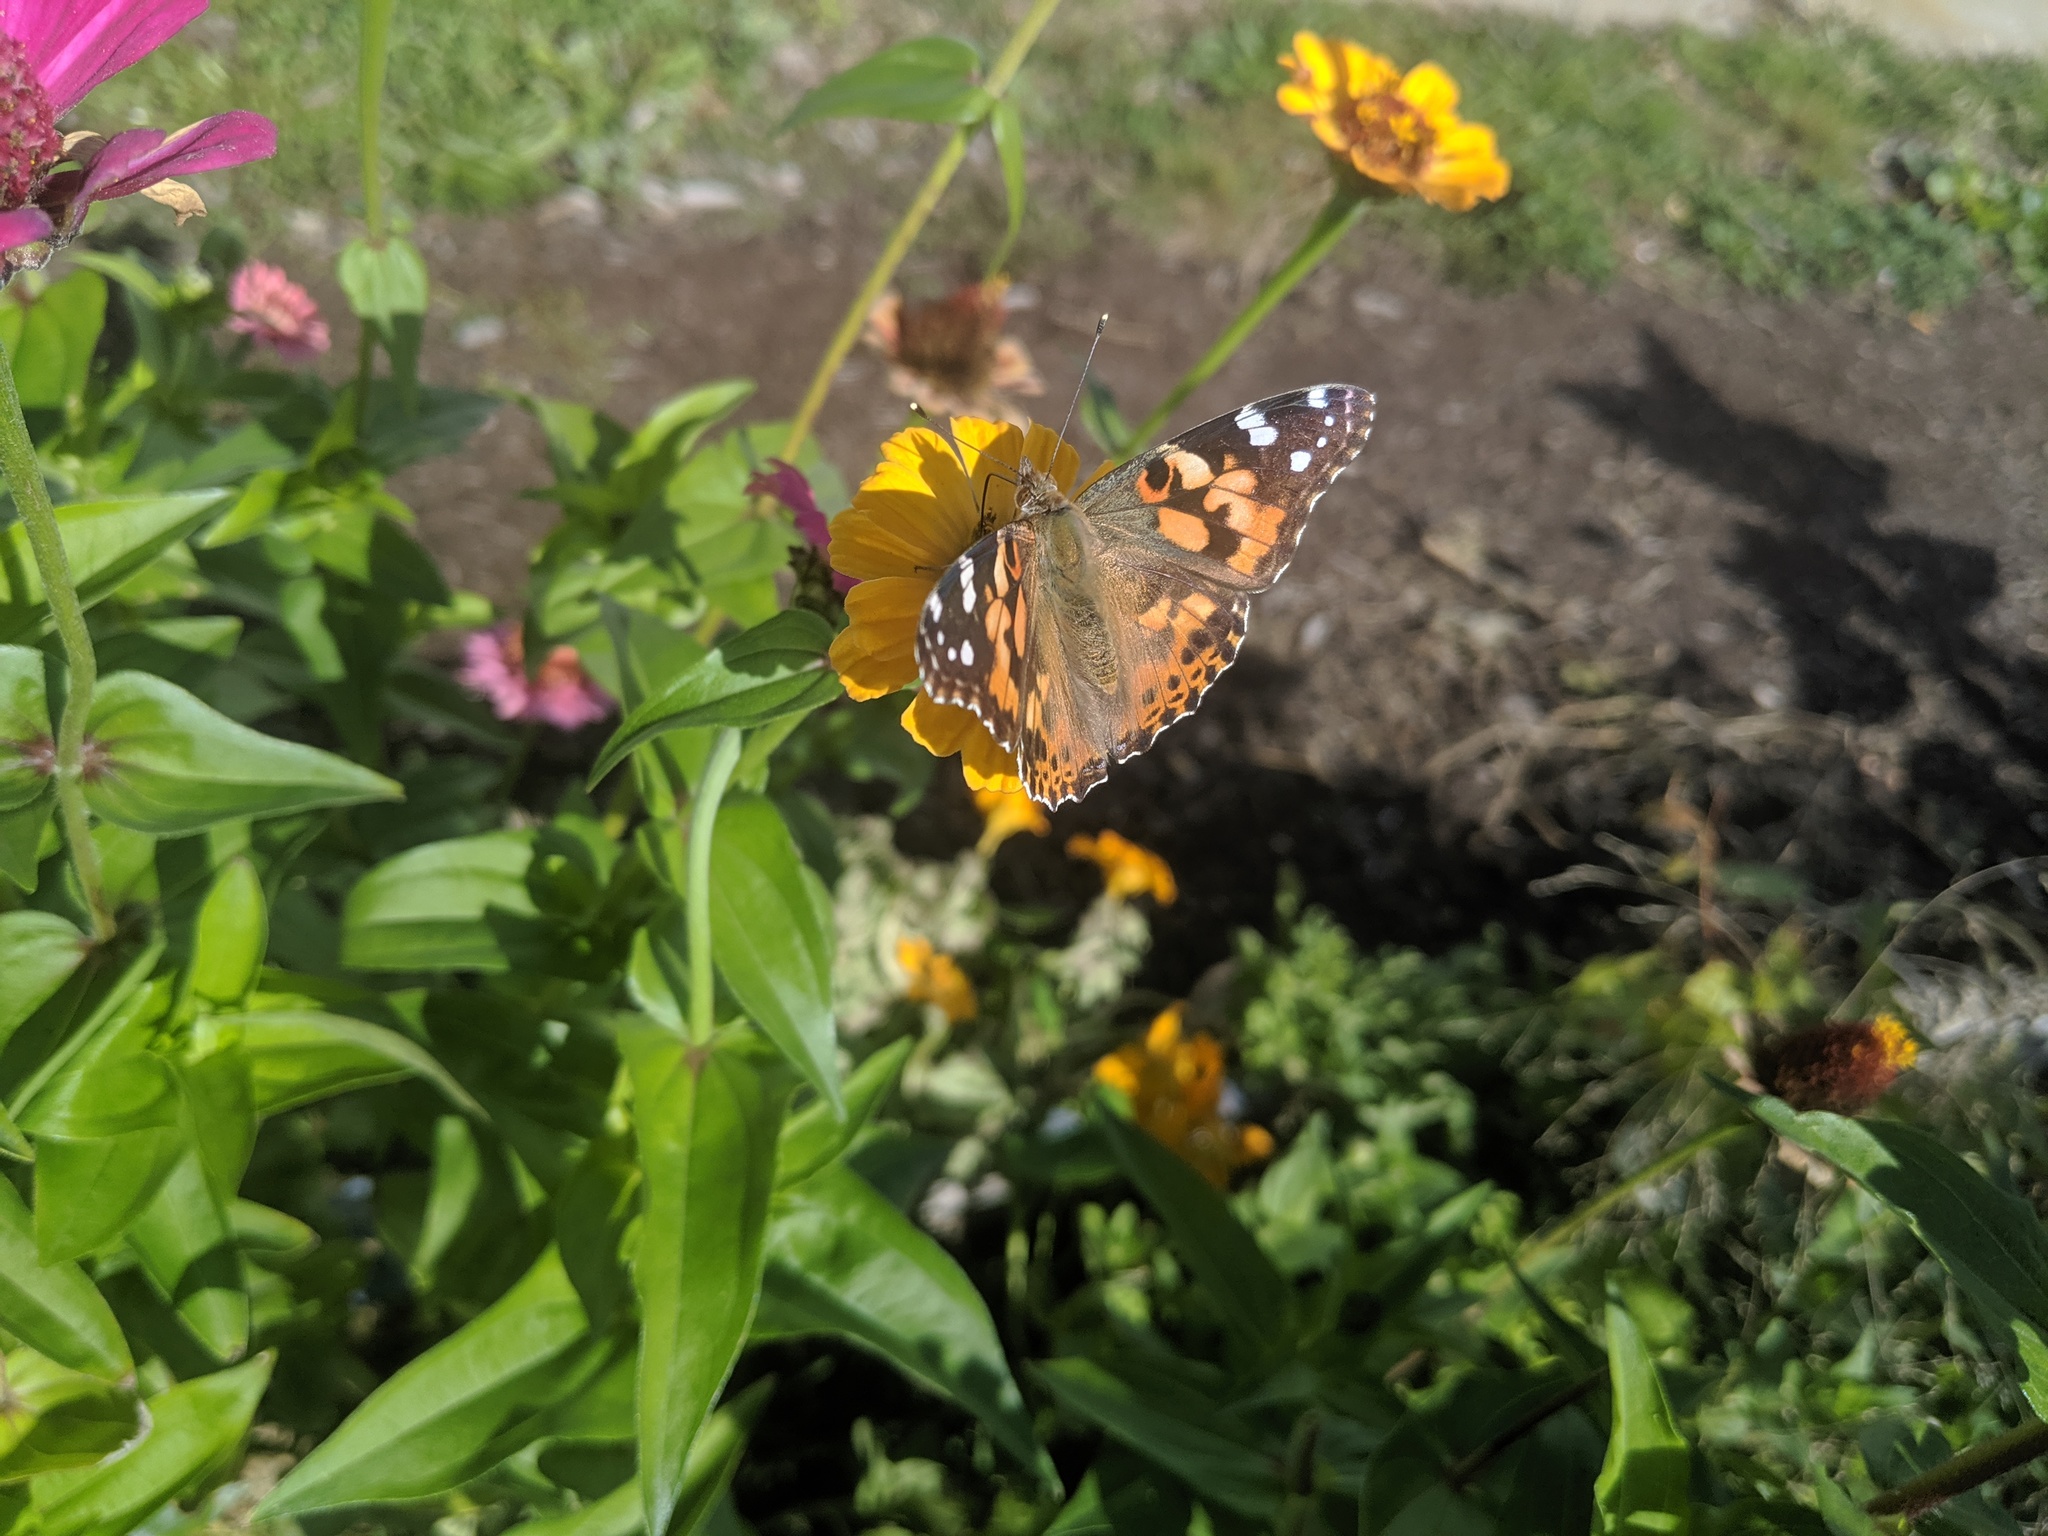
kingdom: Animalia
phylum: Arthropoda
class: Insecta
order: Lepidoptera
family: Nymphalidae
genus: Vanessa
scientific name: Vanessa cardui
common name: Painted lady
